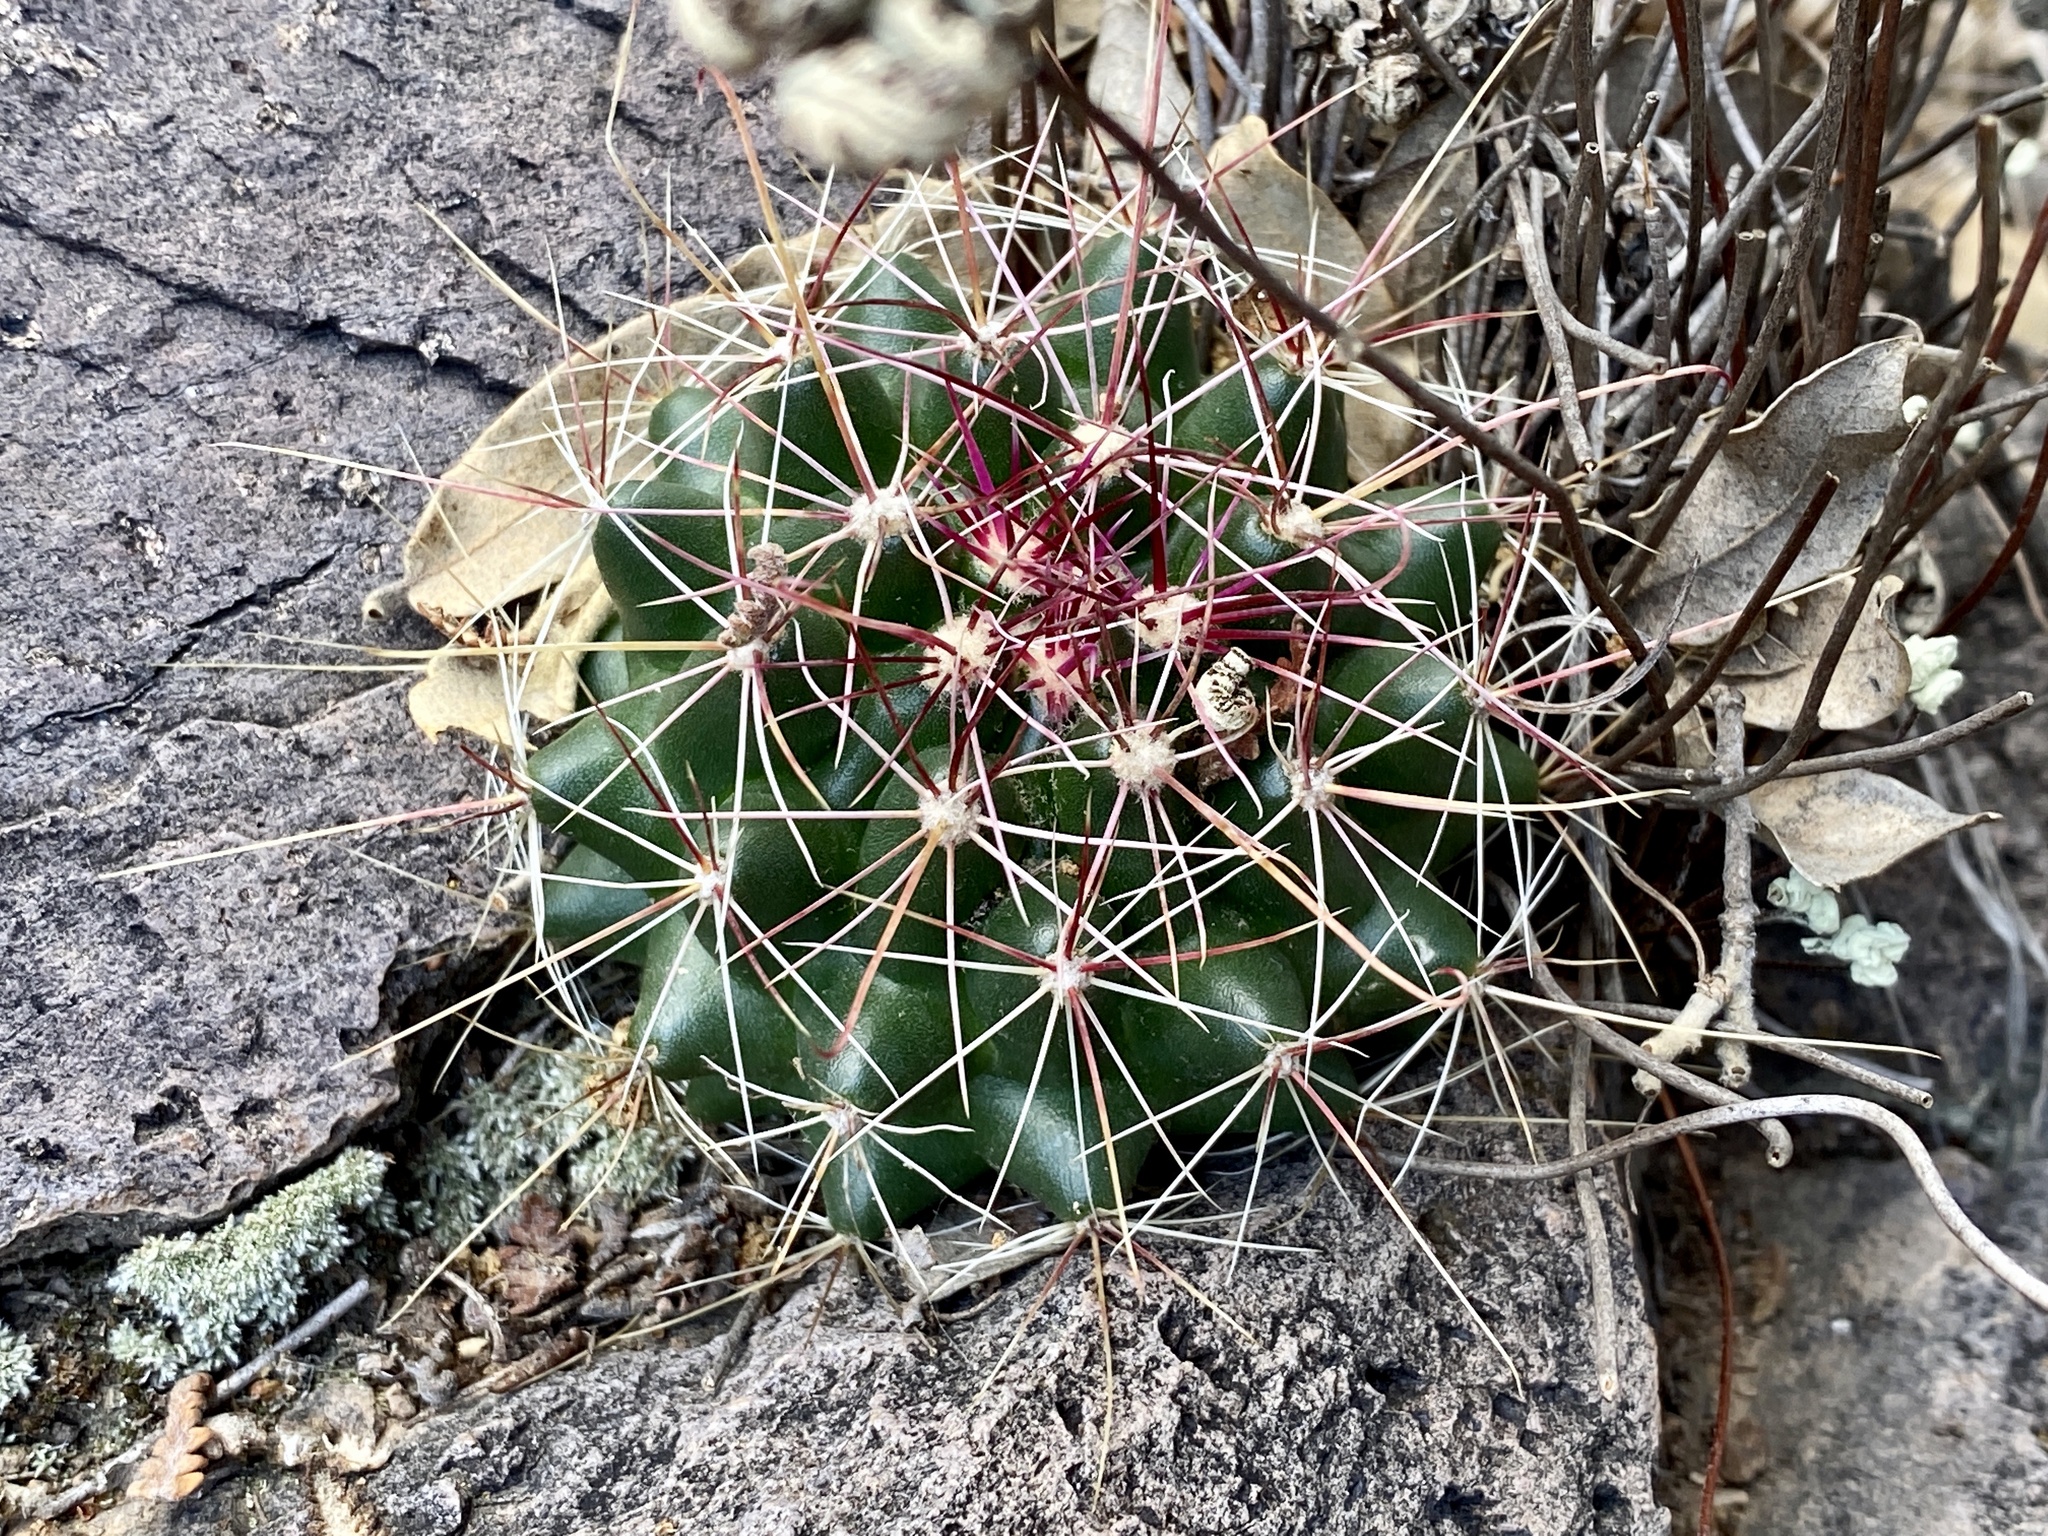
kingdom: Plantae
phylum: Tracheophyta
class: Magnoliopsida
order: Caryophyllales
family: Cactaceae
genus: Bisnaga
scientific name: Bisnaga hamatacantha
